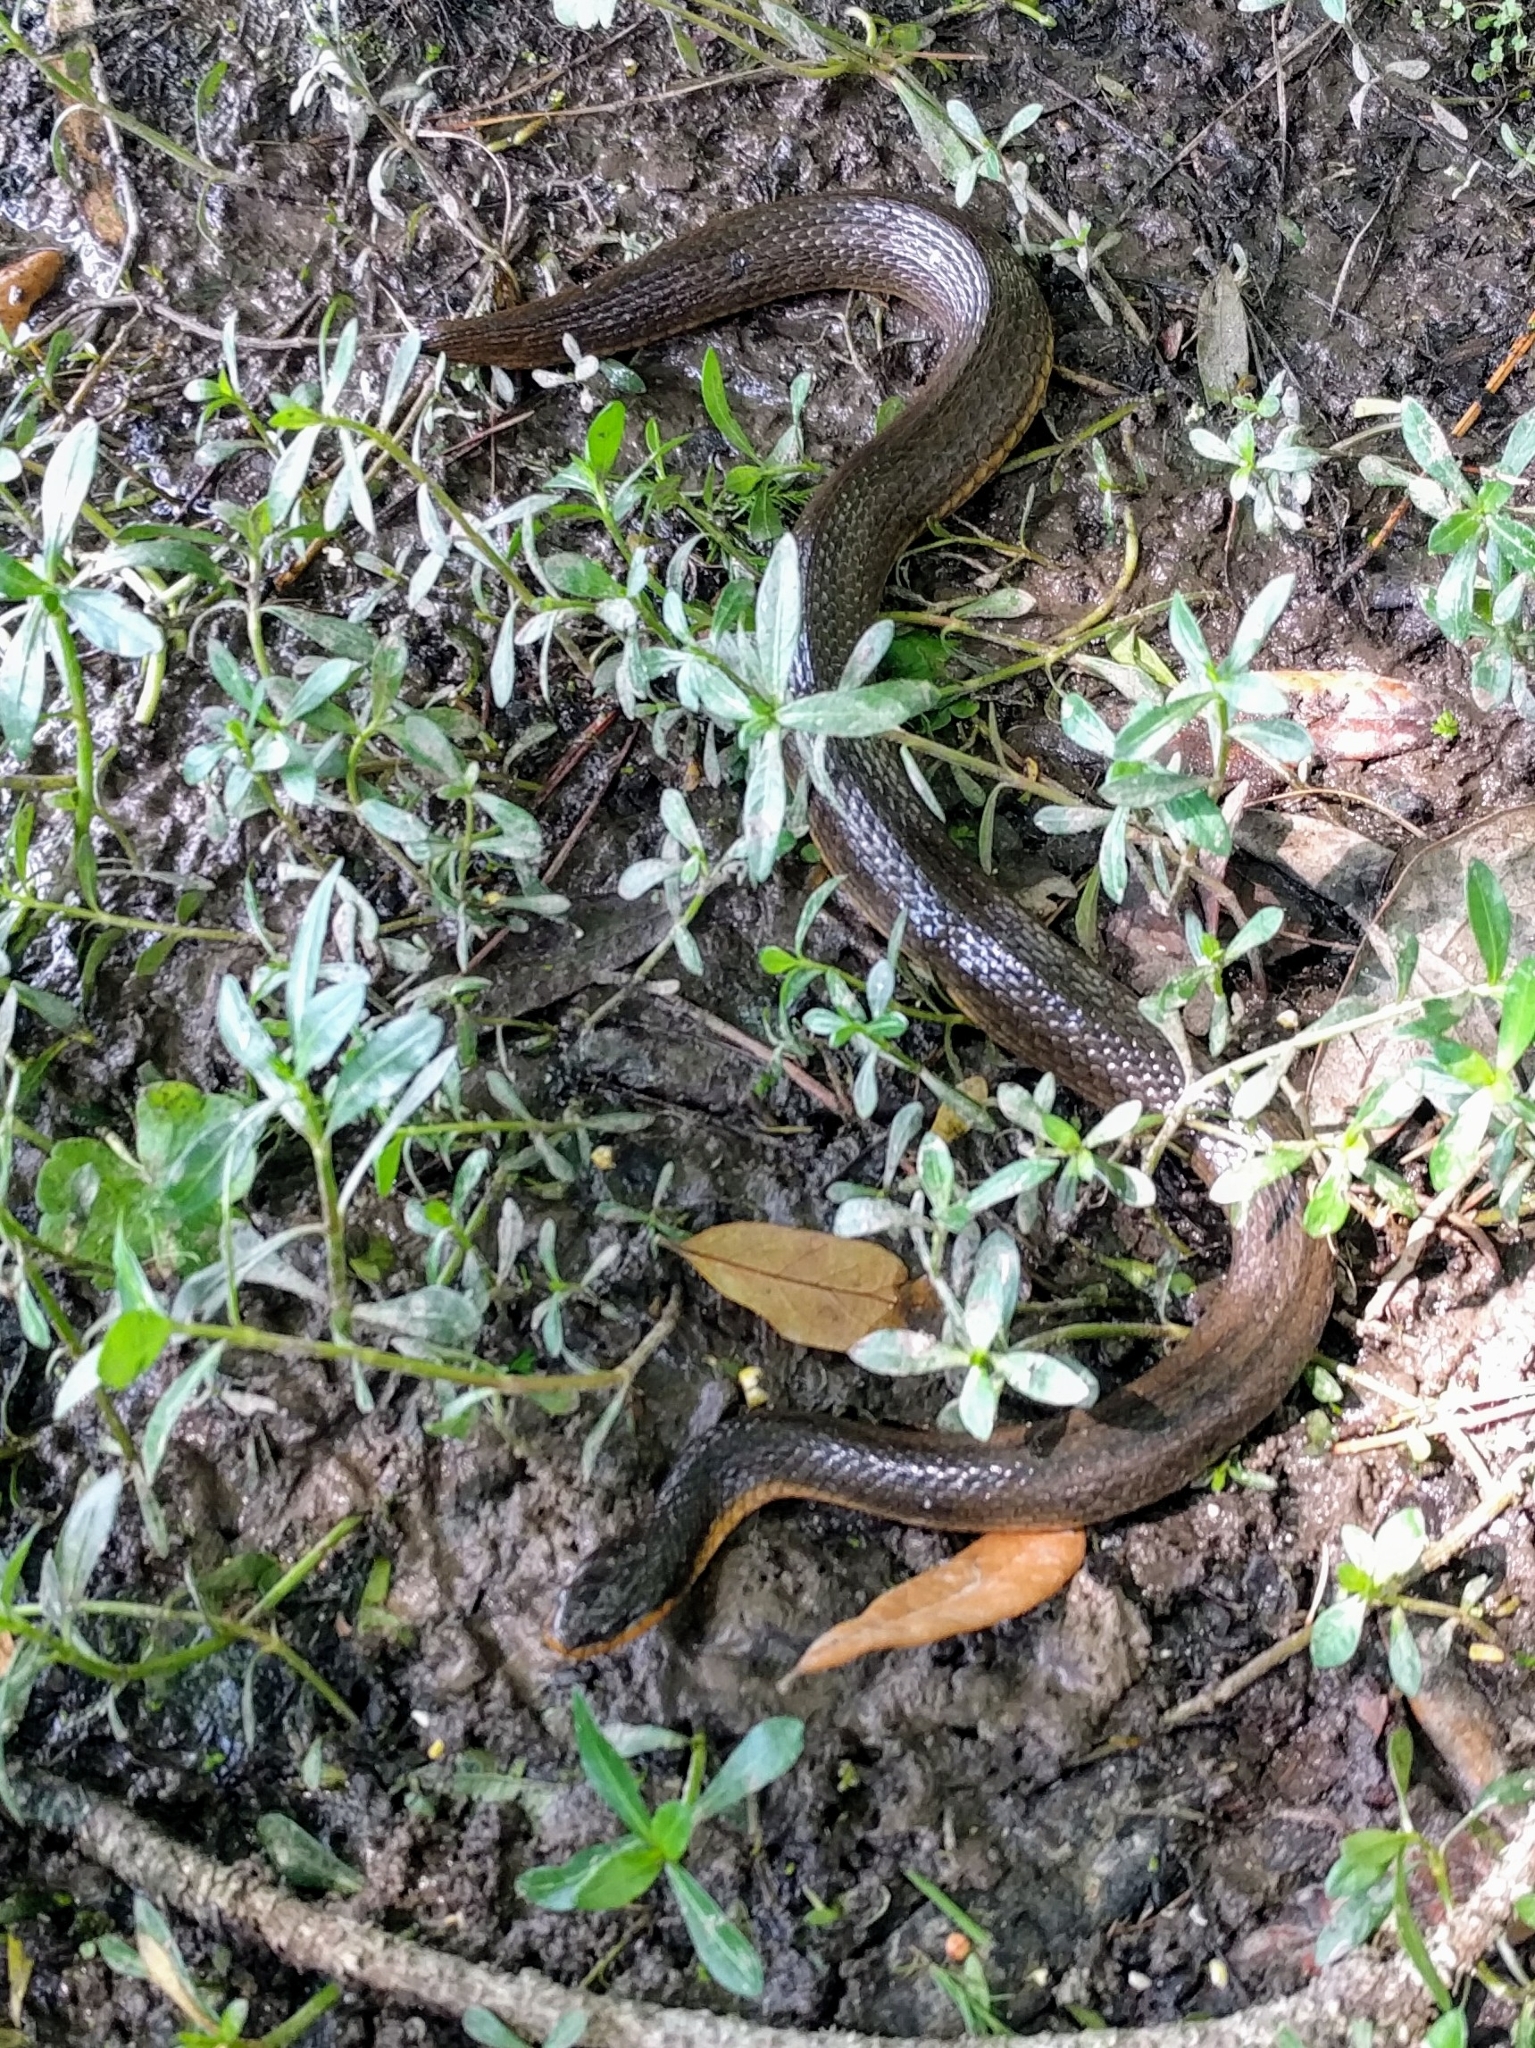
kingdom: Animalia
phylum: Chordata
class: Squamata
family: Colubridae
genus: Liodytes
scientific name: Liodytes rigida
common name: Crayfish snake
